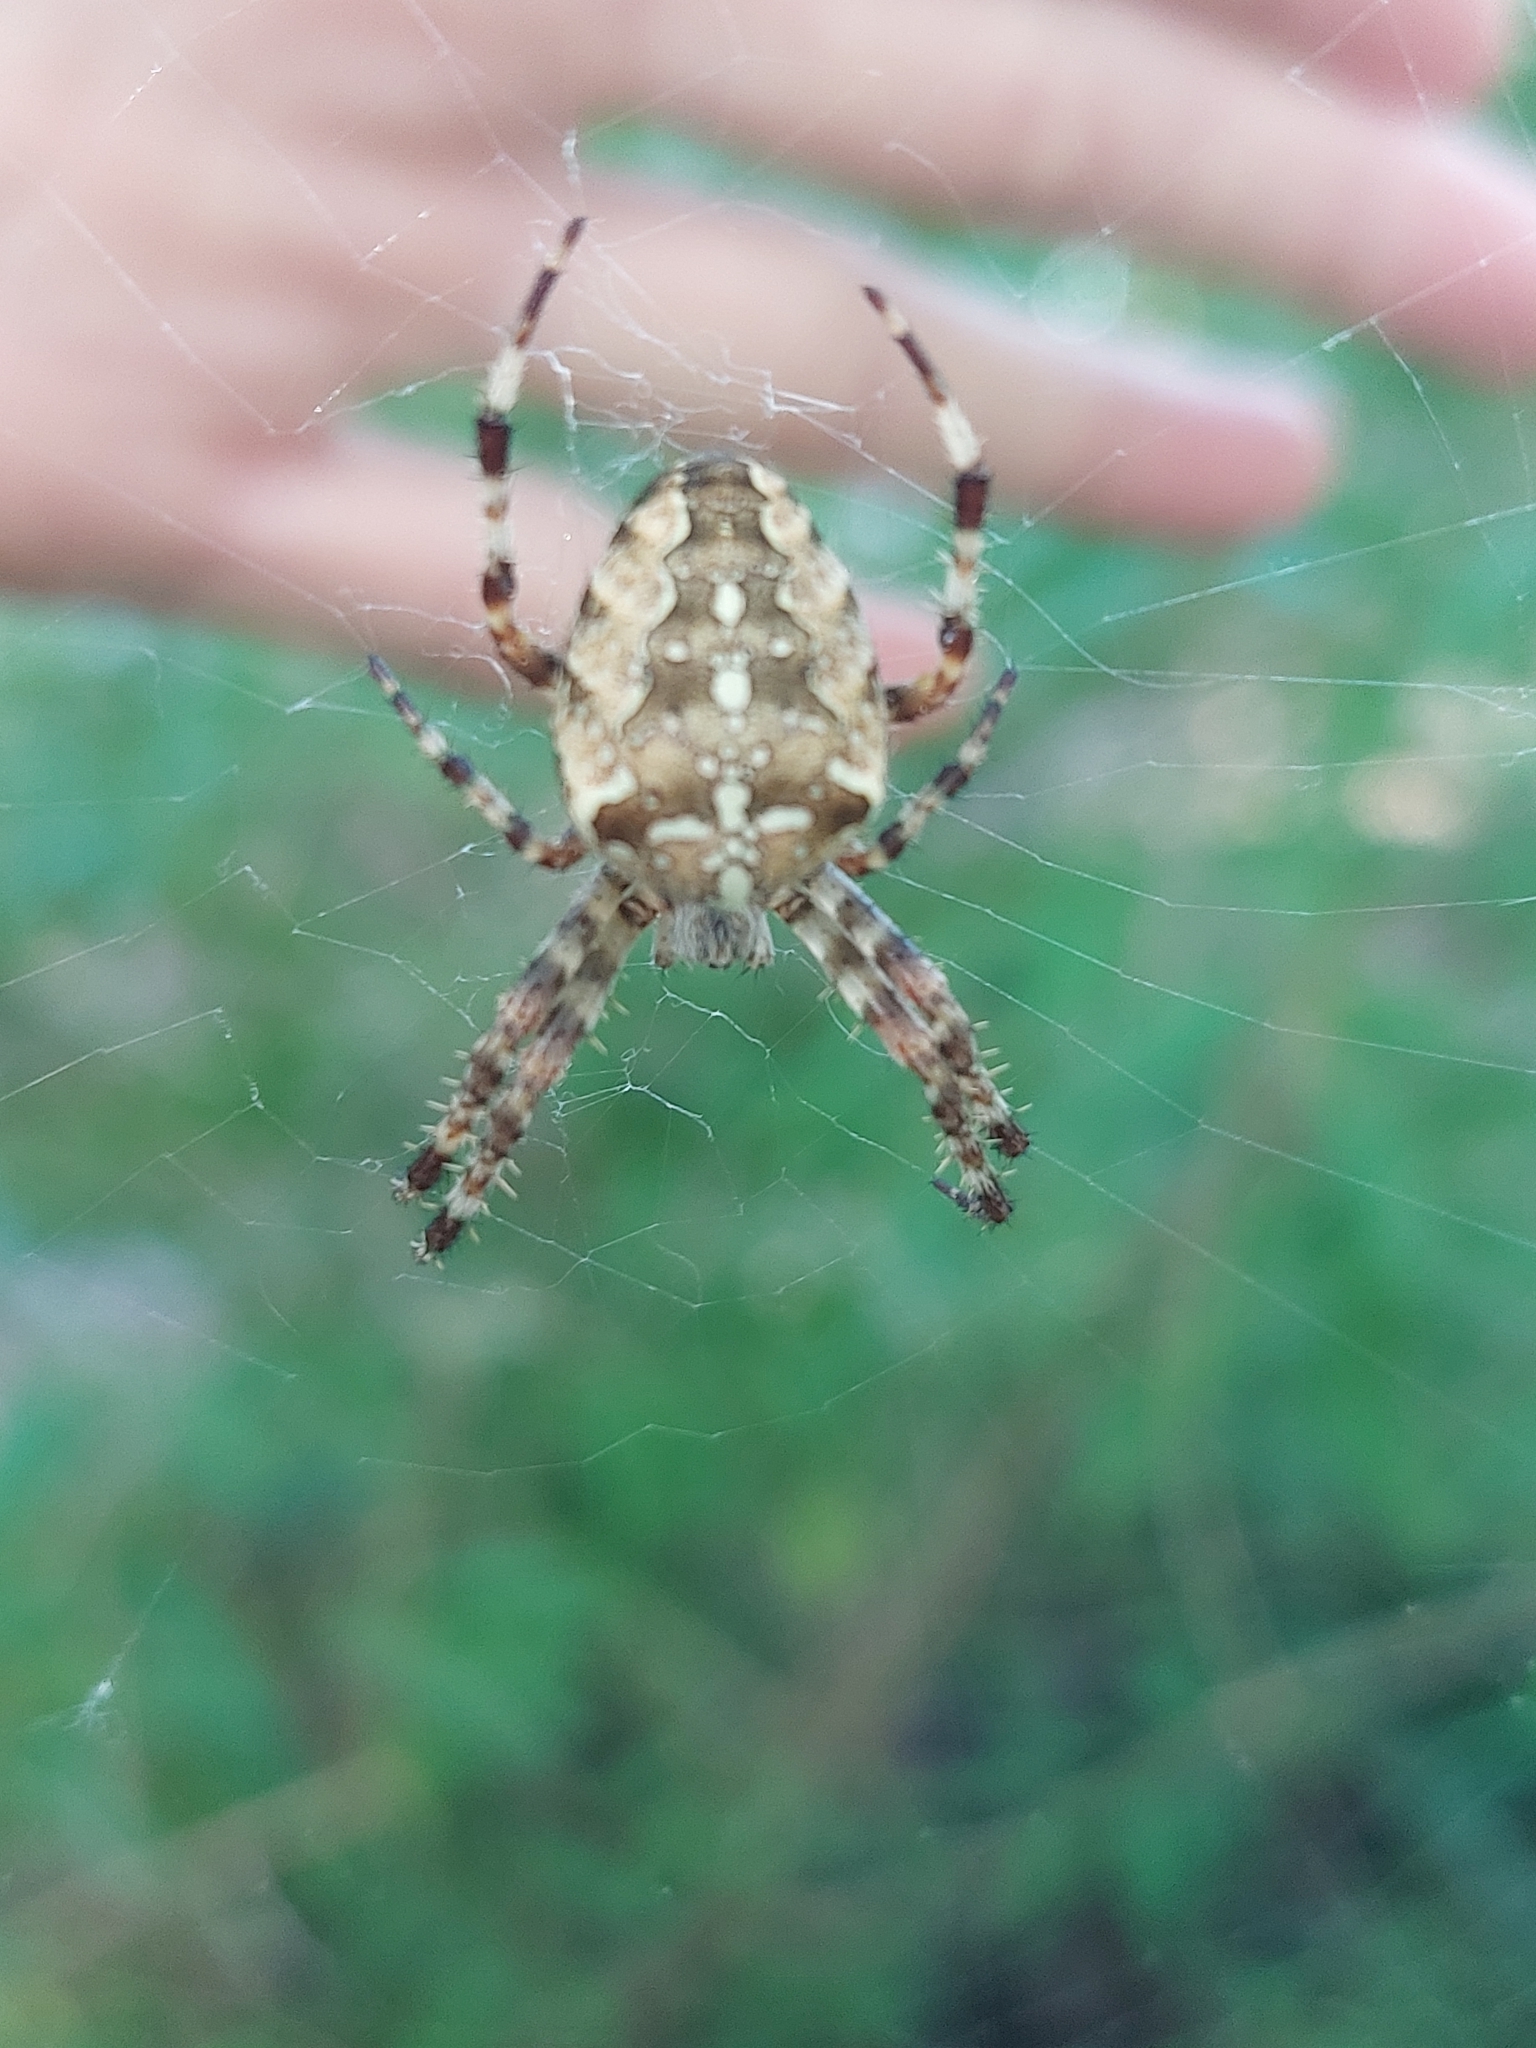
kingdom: Animalia
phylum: Arthropoda
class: Arachnida
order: Araneae
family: Araneidae
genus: Araneus
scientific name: Araneus diadematus
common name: Cross orbweaver
